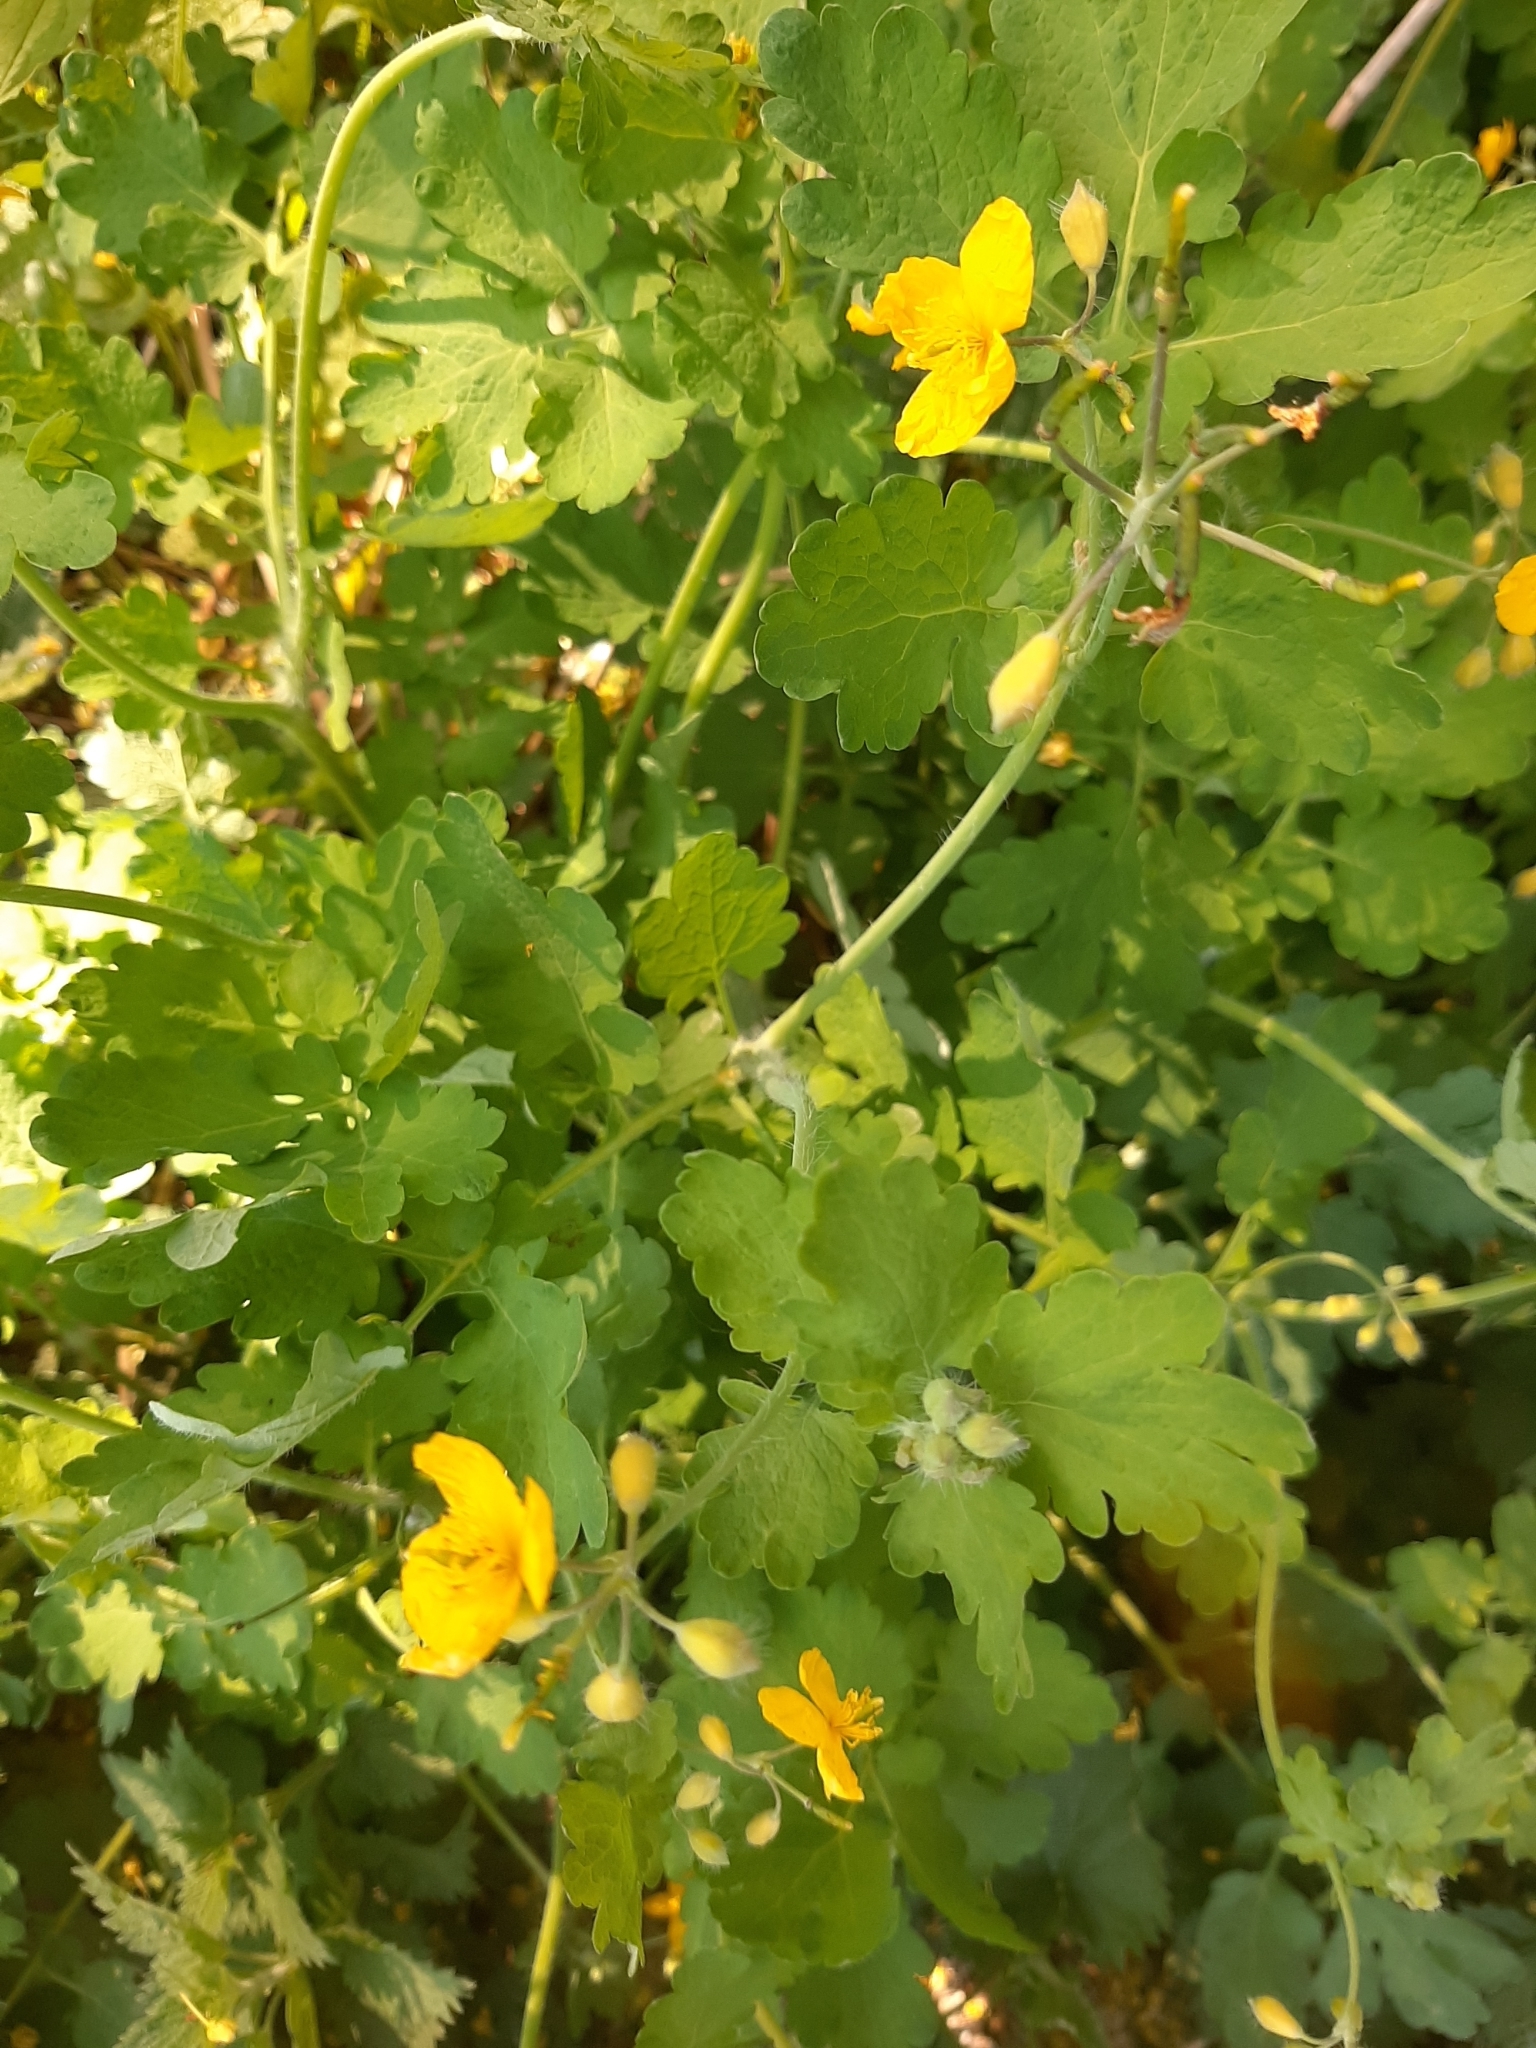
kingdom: Plantae
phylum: Tracheophyta
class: Magnoliopsida
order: Ranunculales
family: Papaveraceae
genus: Chelidonium
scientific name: Chelidonium majus
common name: Greater celandine
